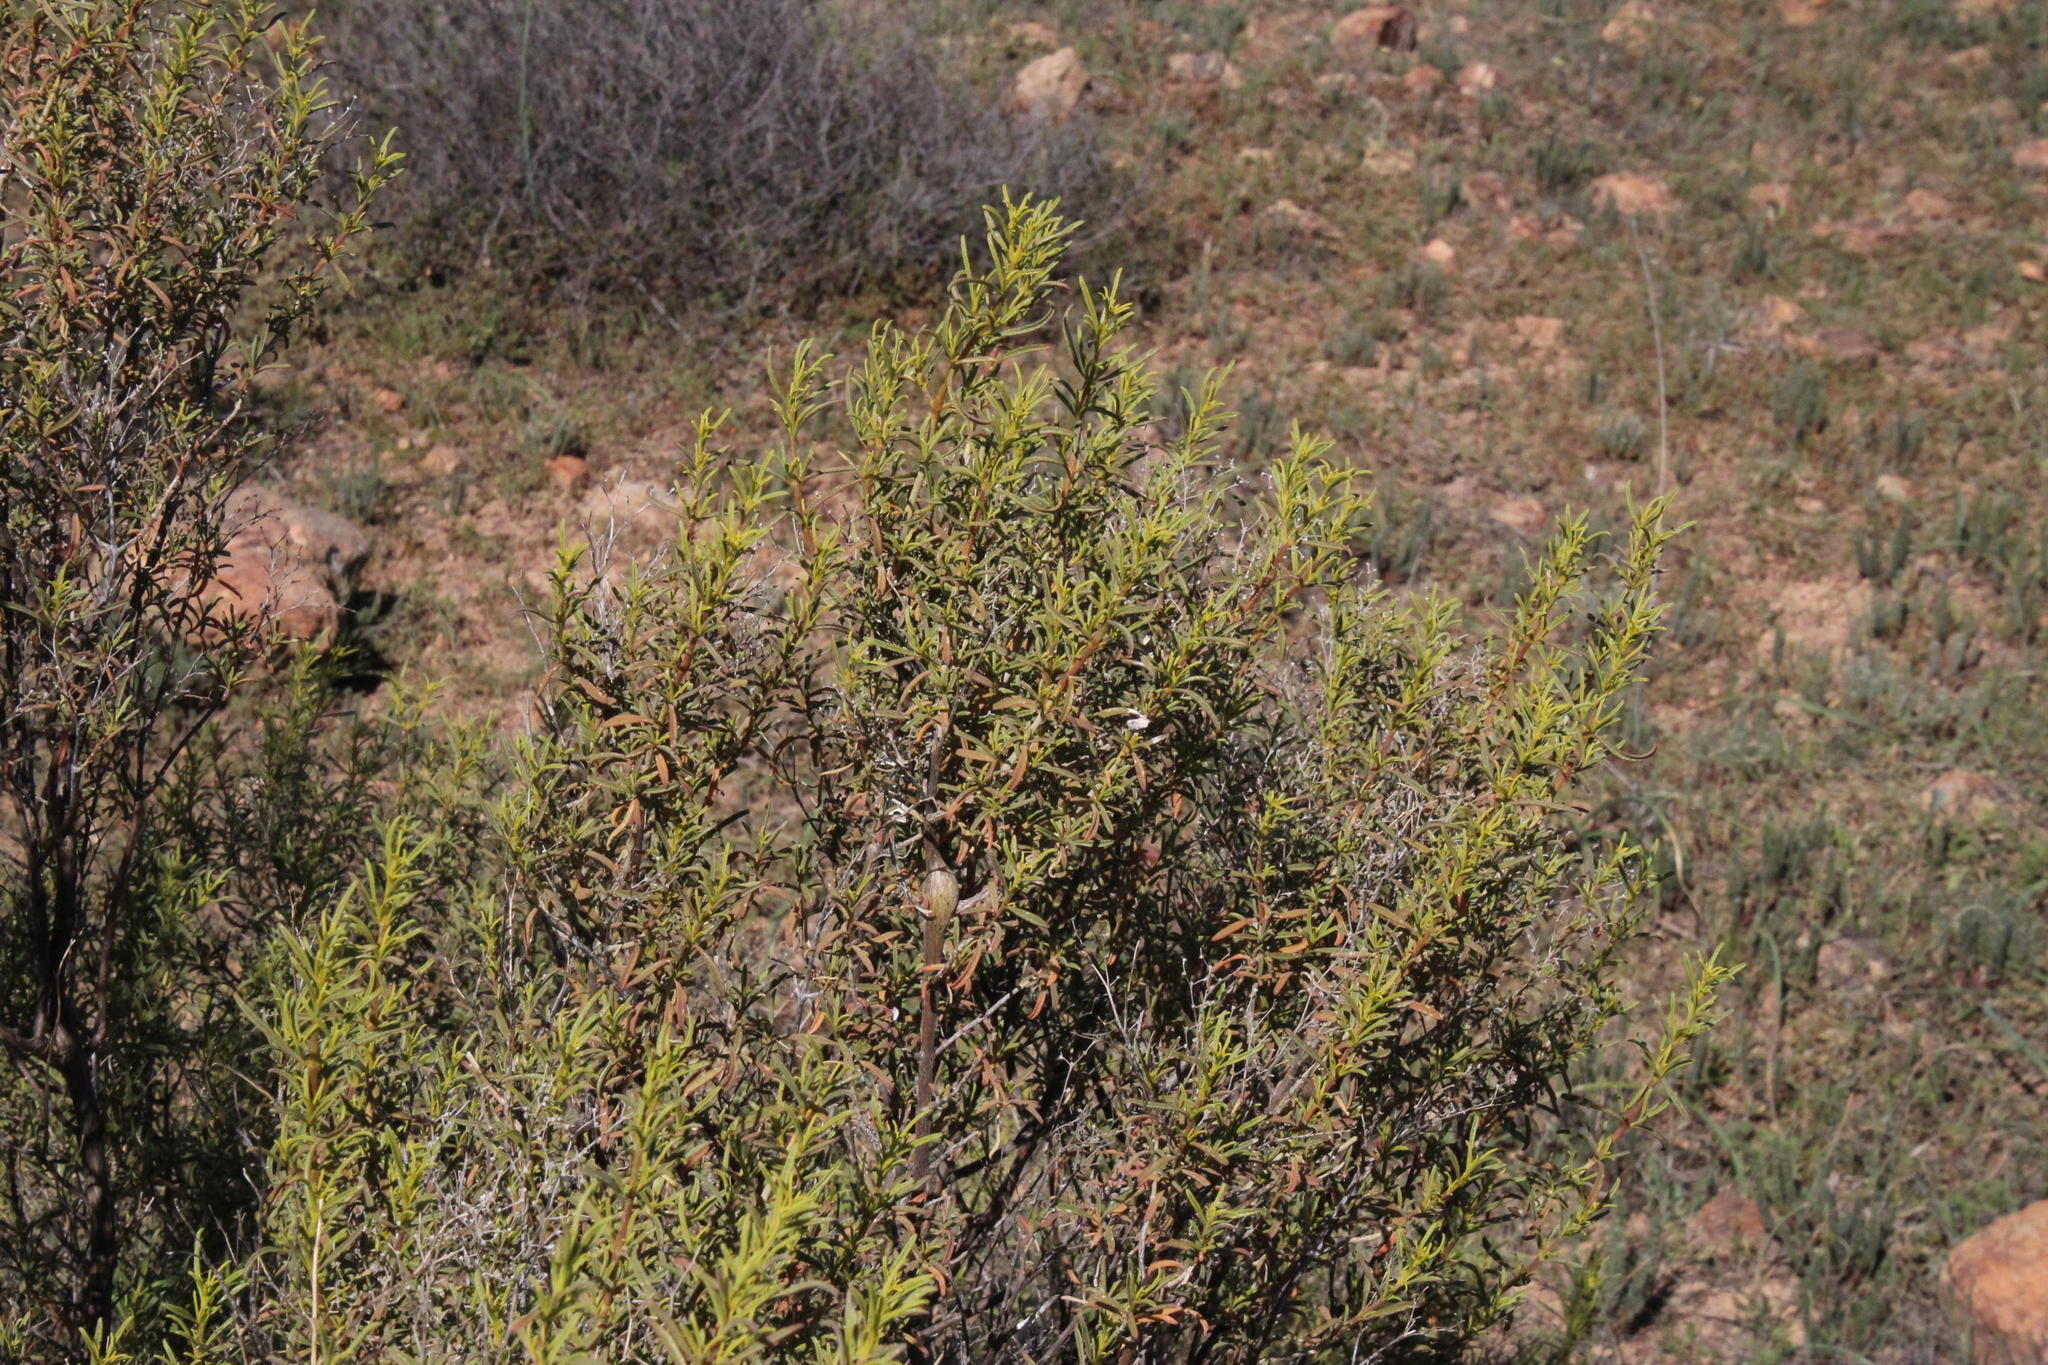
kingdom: Plantae
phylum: Tracheophyta
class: Magnoliopsida
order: Caryophyllales
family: Aizoaceae
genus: Aizoon
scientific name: Aizoon africanum
